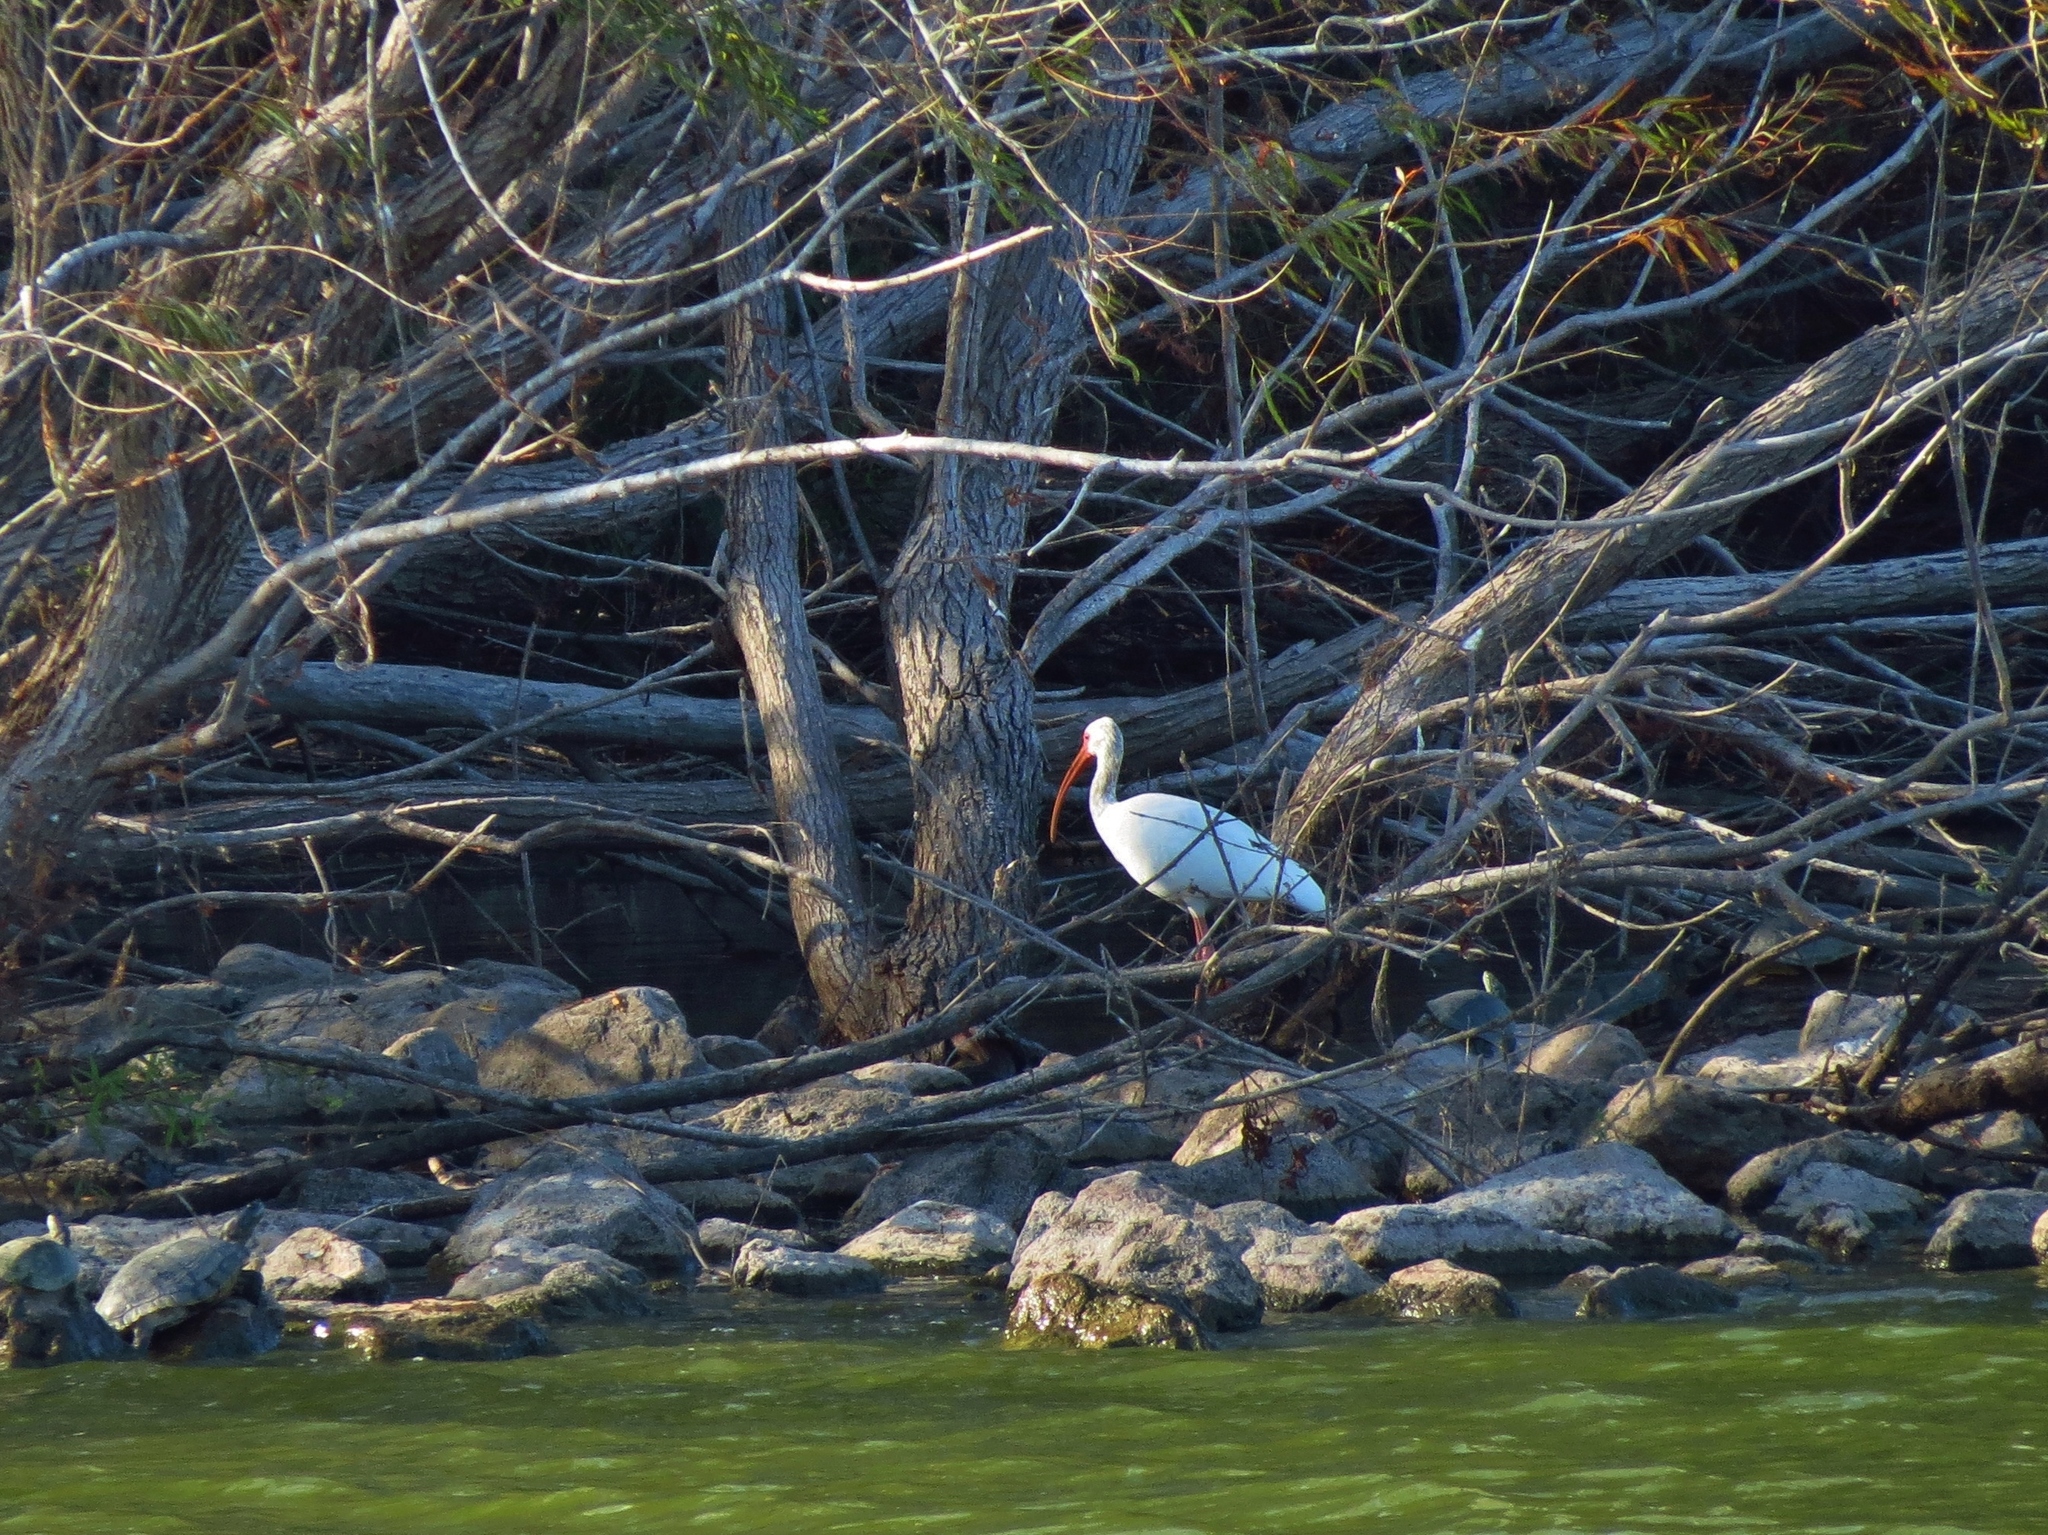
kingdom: Animalia
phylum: Chordata
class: Aves
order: Pelecaniformes
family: Threskiornithidae
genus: Eudocimus
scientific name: Eudocimus albus
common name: White ibis
